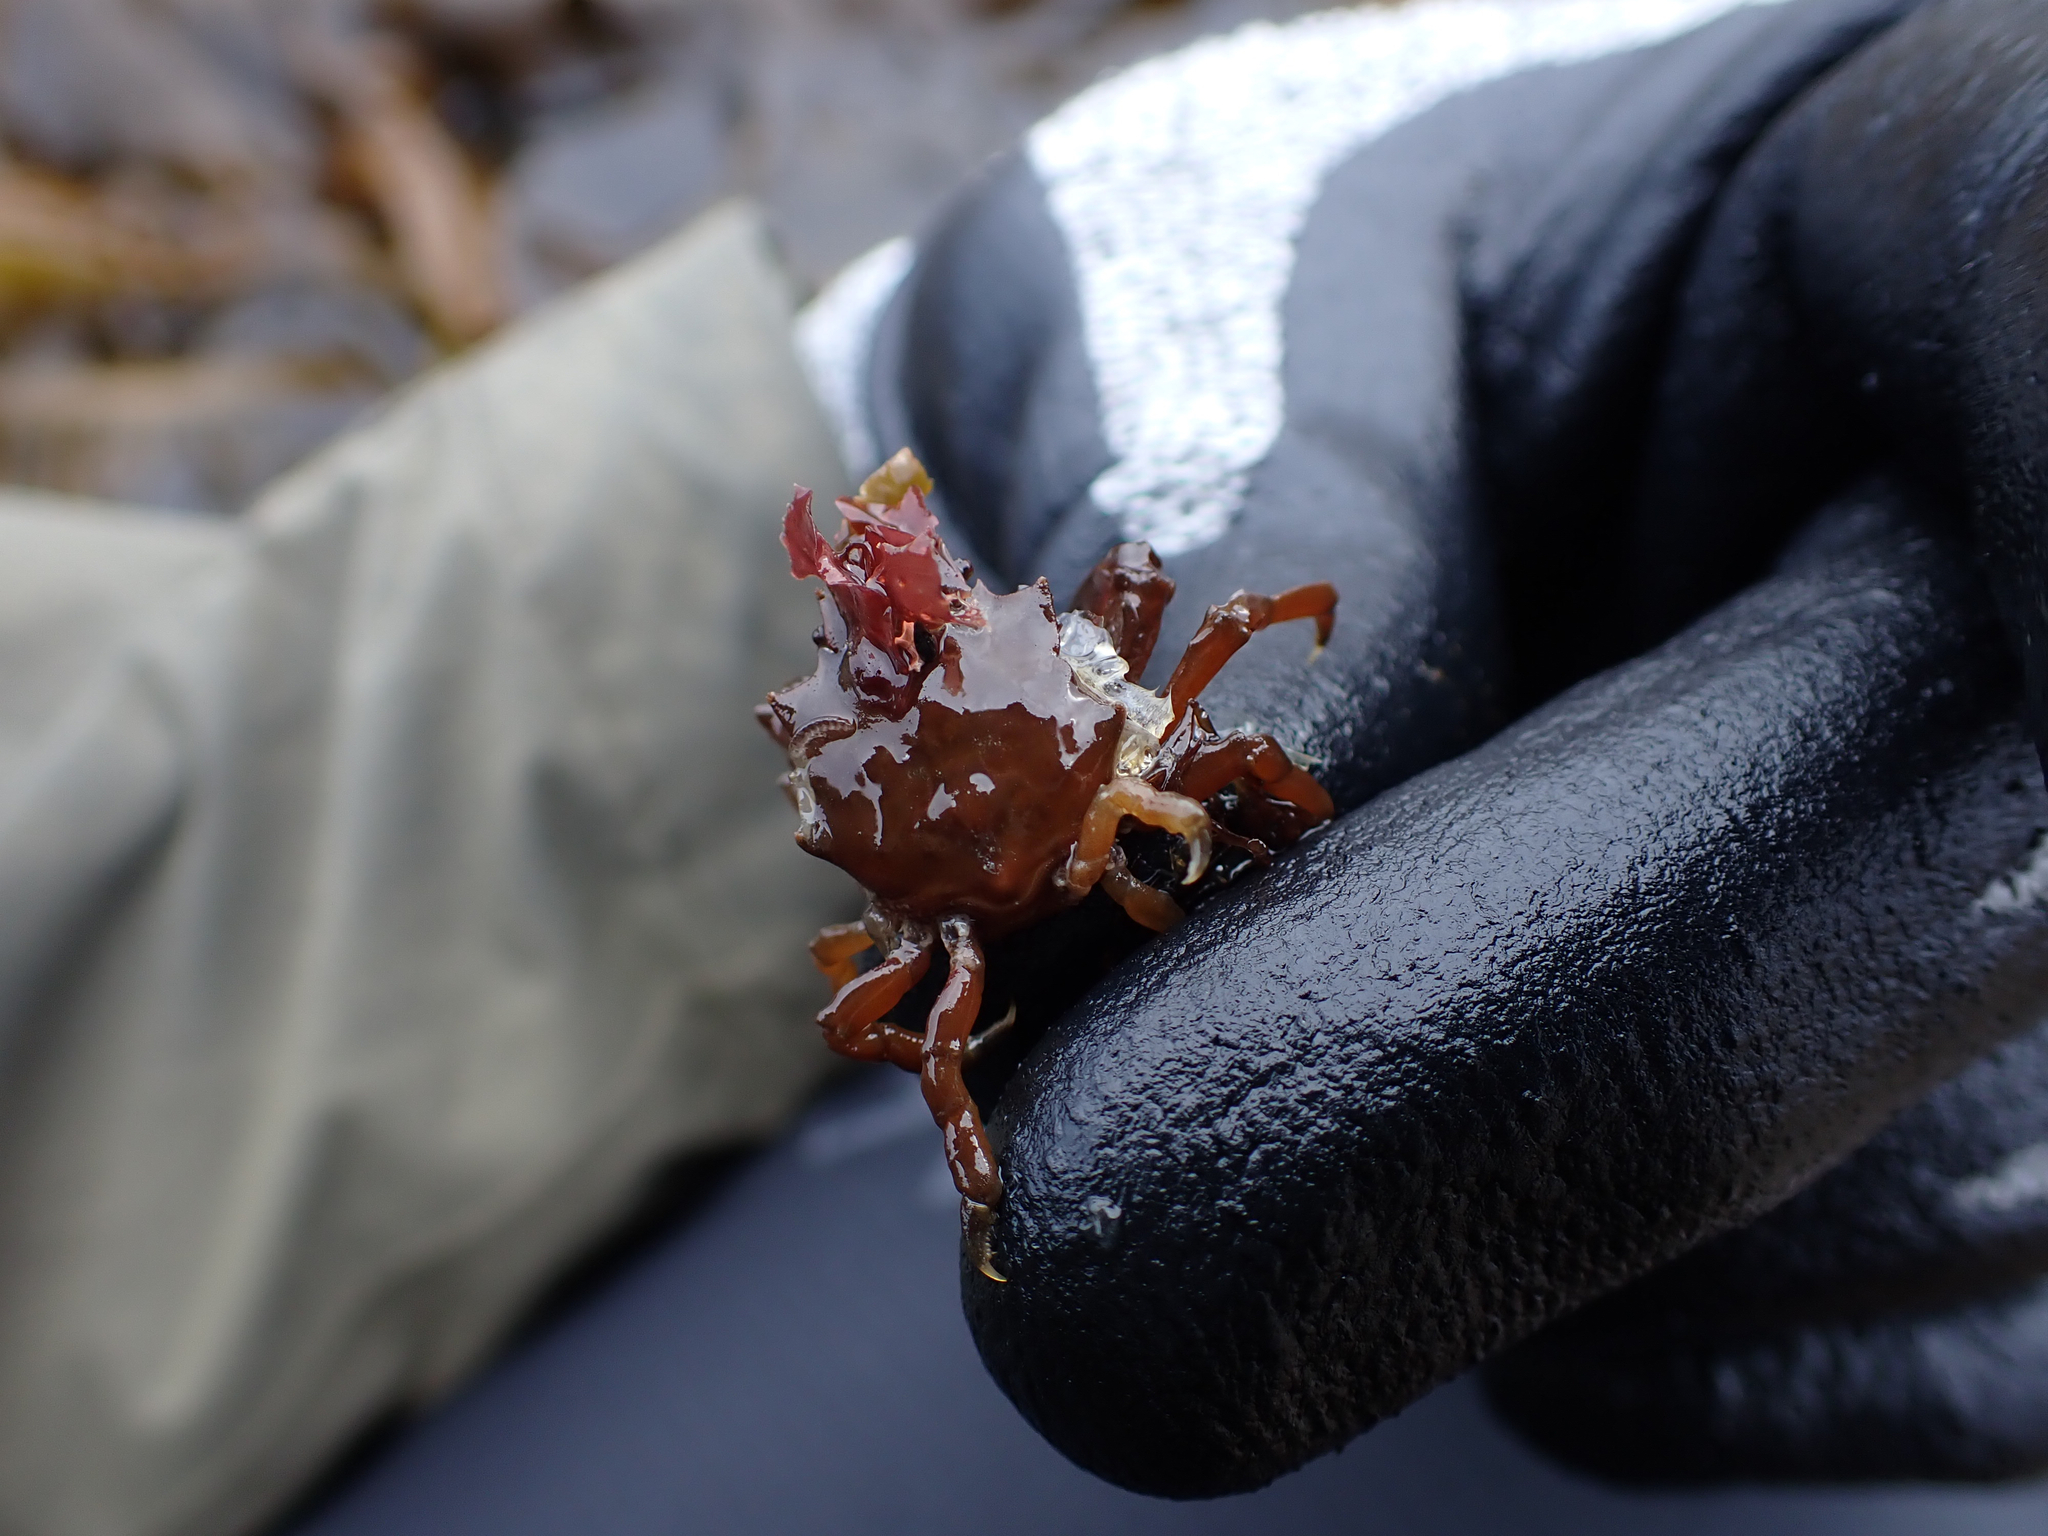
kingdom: Animalia
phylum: Arthropoda
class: Malacostraca
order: Decapoda
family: Epialtidae
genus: Pugettia
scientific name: Pugettia gracilis
